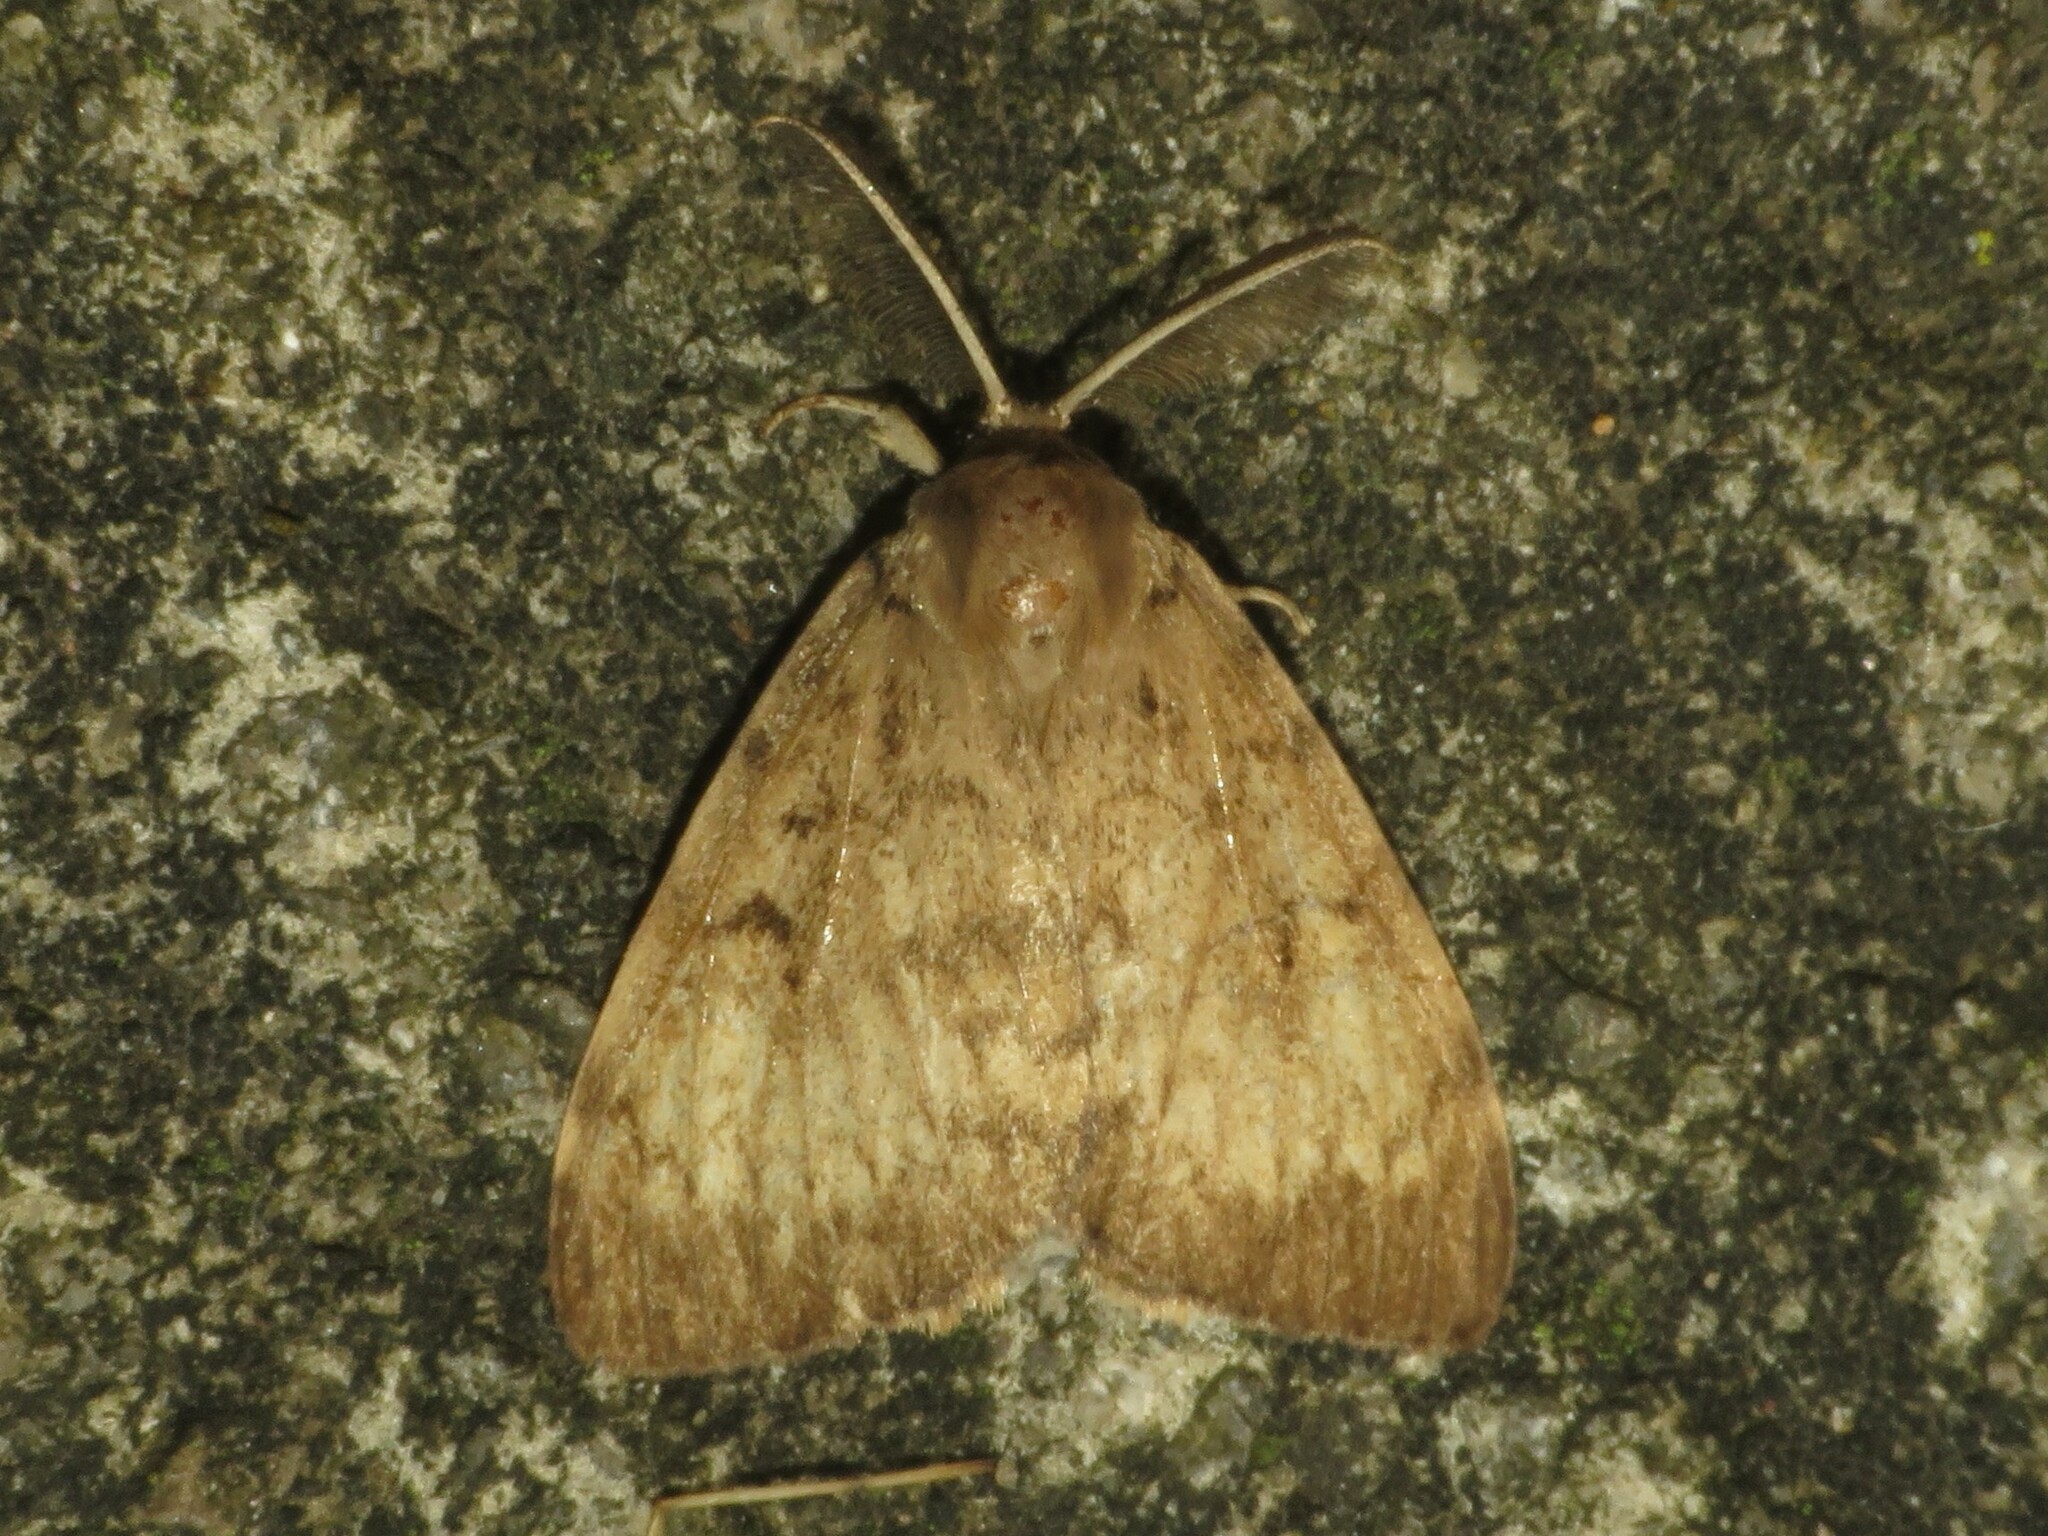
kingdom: Animalia
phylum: Arthropoda
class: Insecta
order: Lepidoptera
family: Erebidae
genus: Lymantria
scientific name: Lymantria dispar
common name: Gypsy moth
